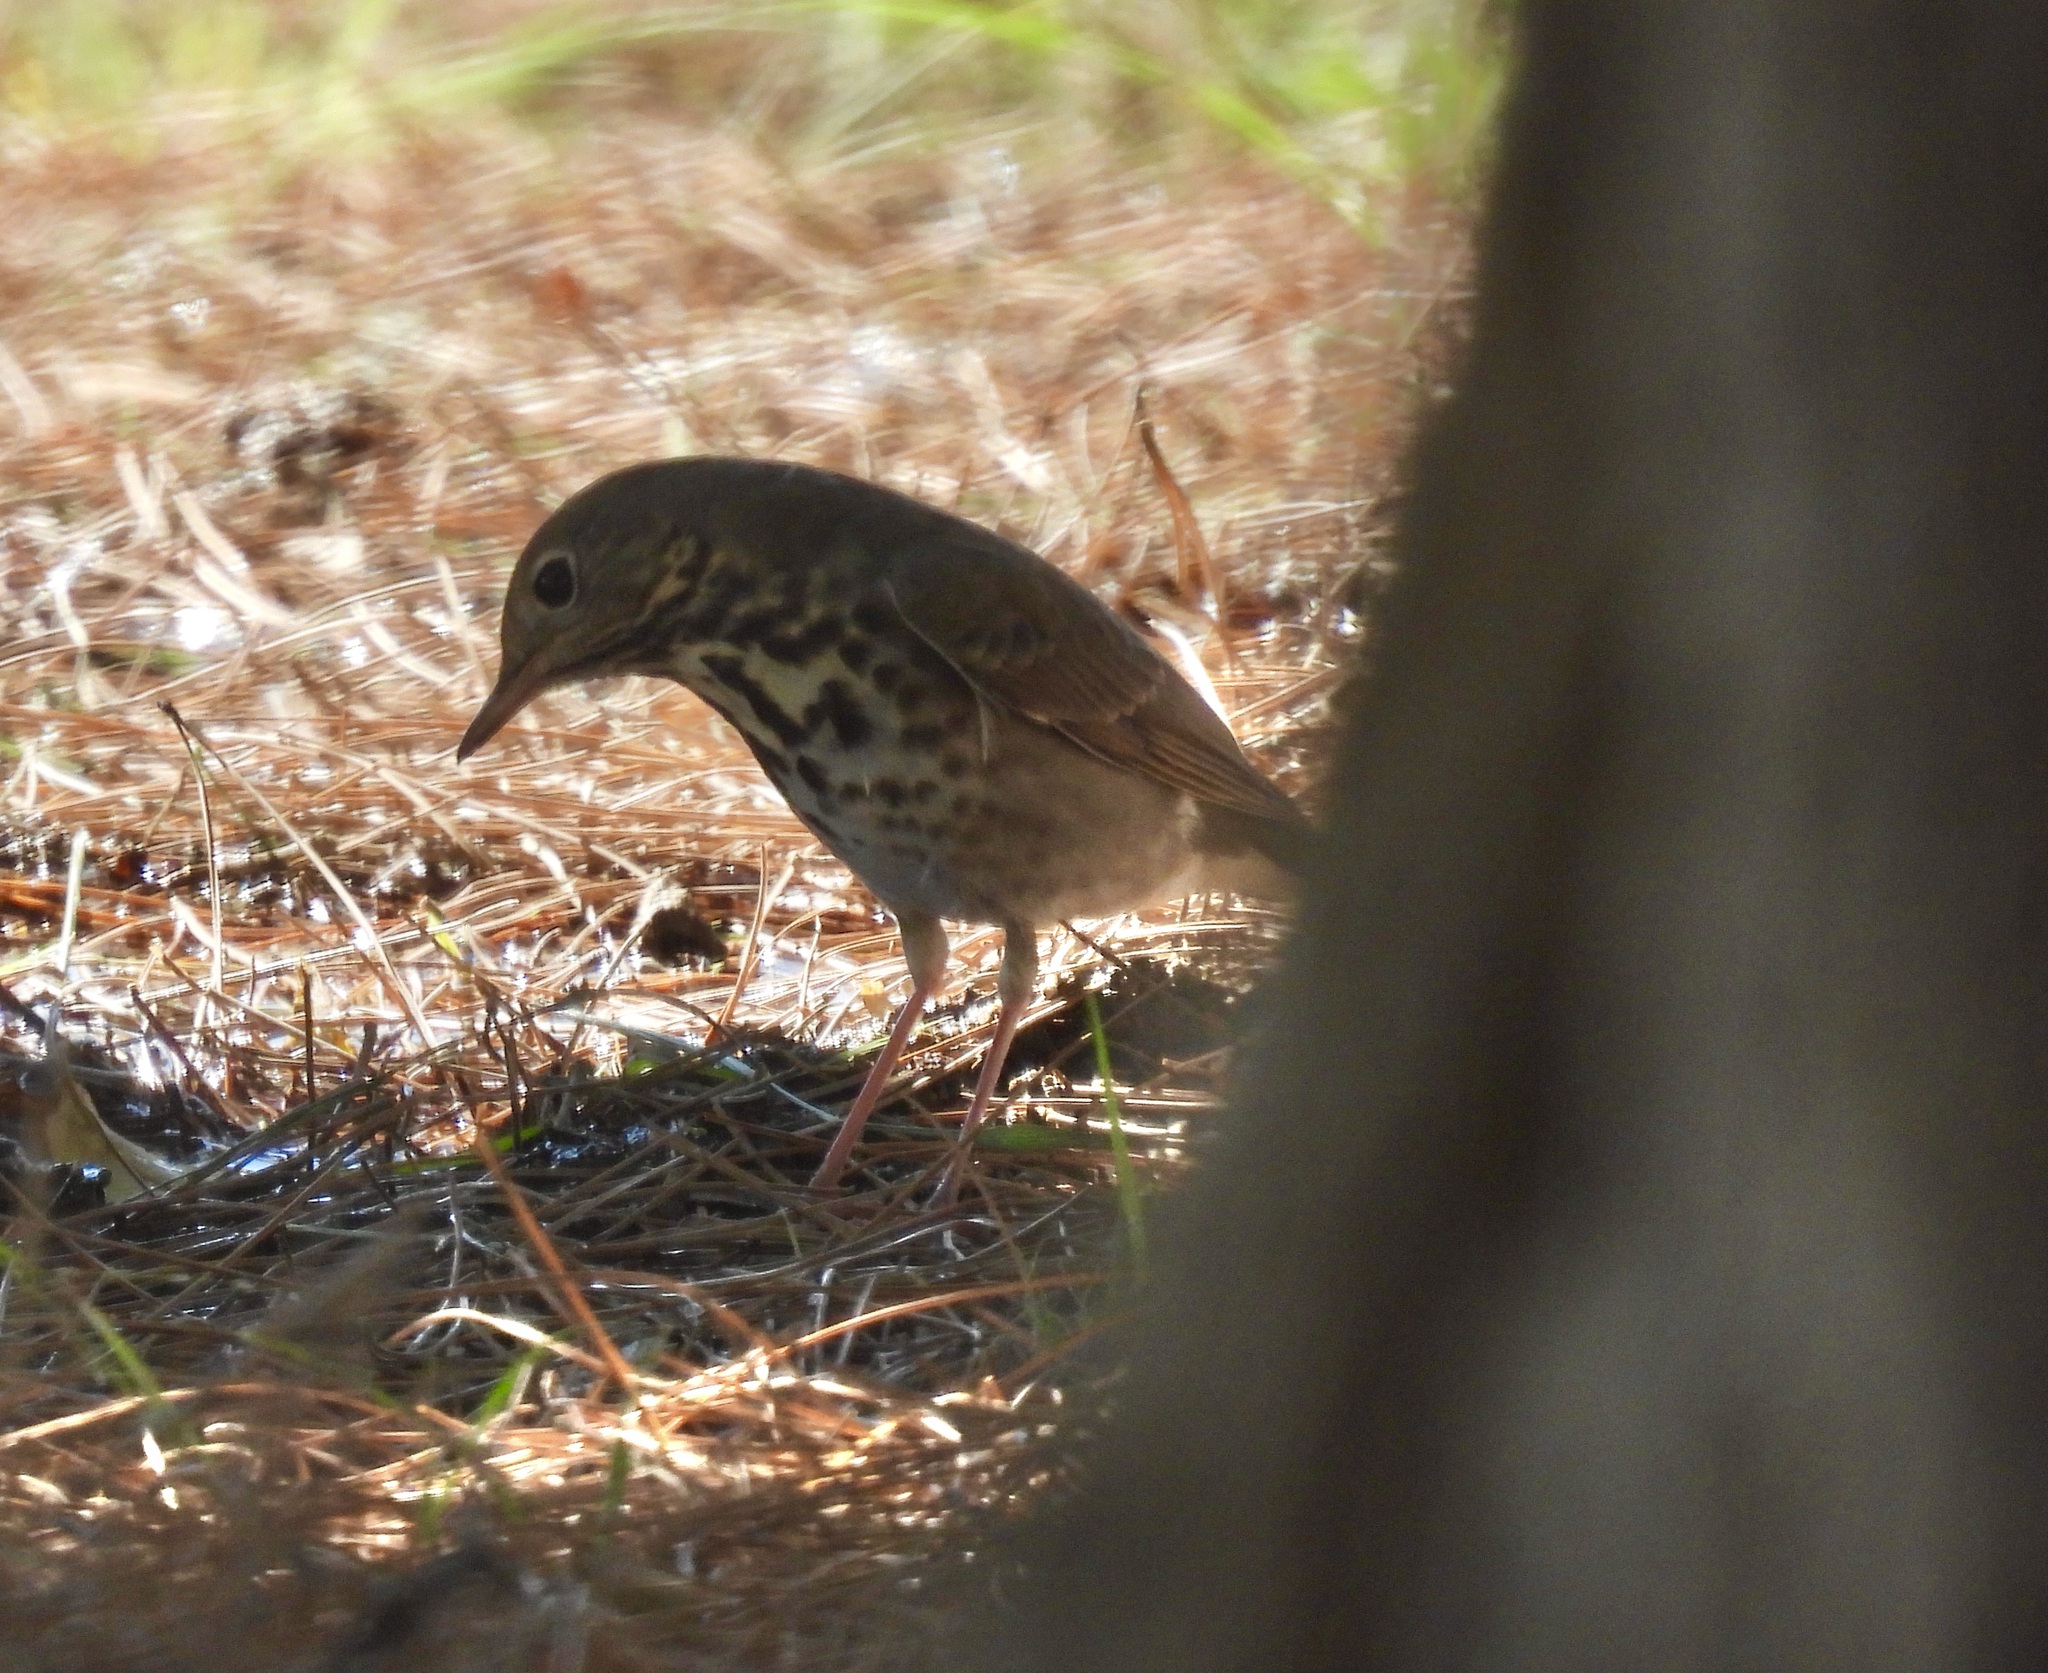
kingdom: Animalia
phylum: Chordata
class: Aves
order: Passeriformes
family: Turdidae
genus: Catharus
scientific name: Catharus guttatus
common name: Hermit thrush
